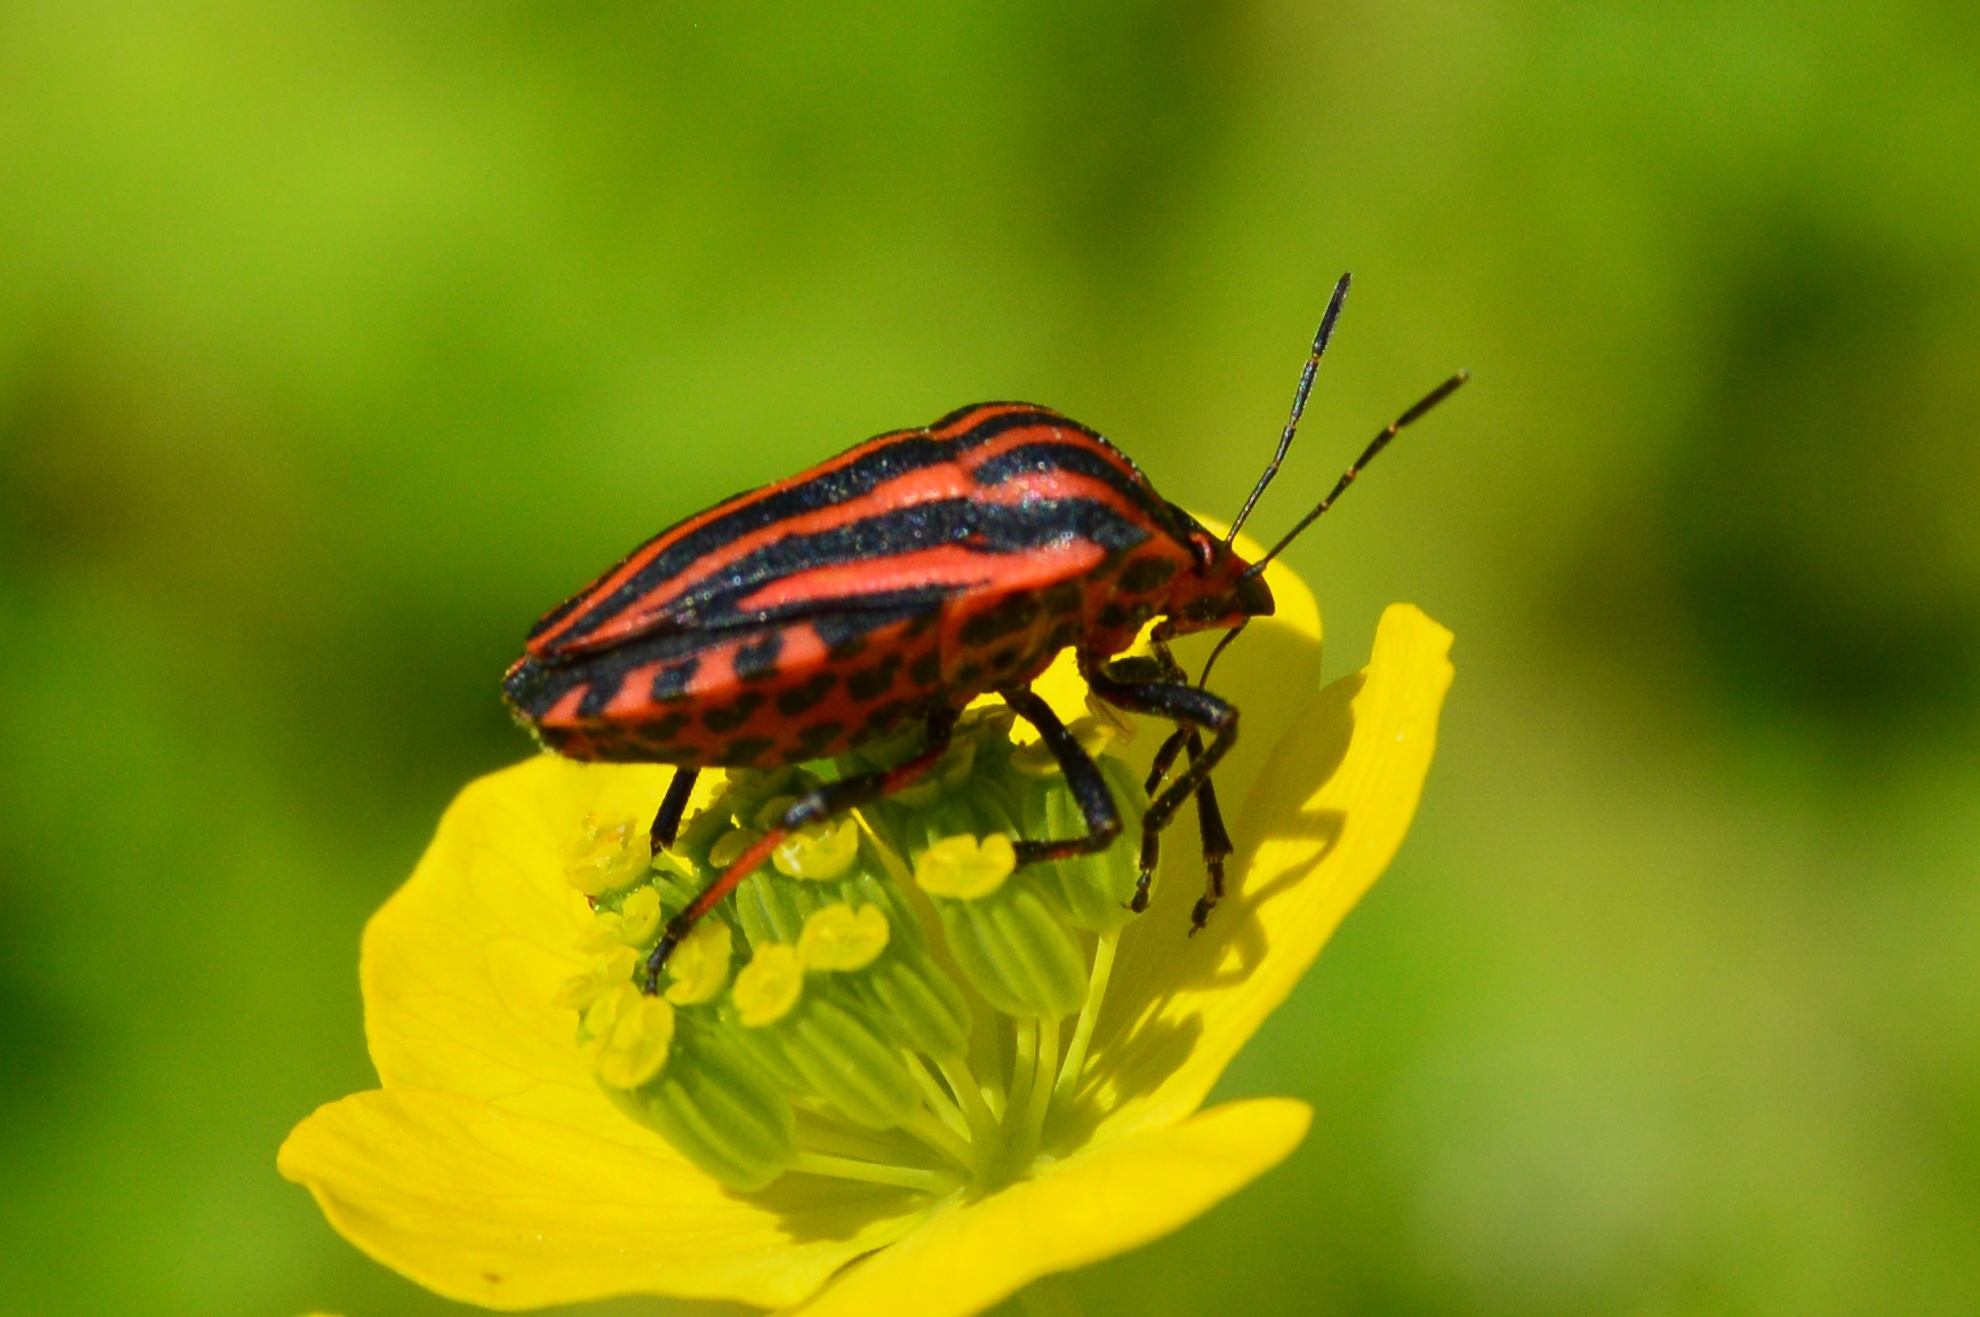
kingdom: Animalia
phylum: Arthropoda
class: Insecta
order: Hemiptera
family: Pentatomidae
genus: Graphosoma
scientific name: Graphosoma italicum
